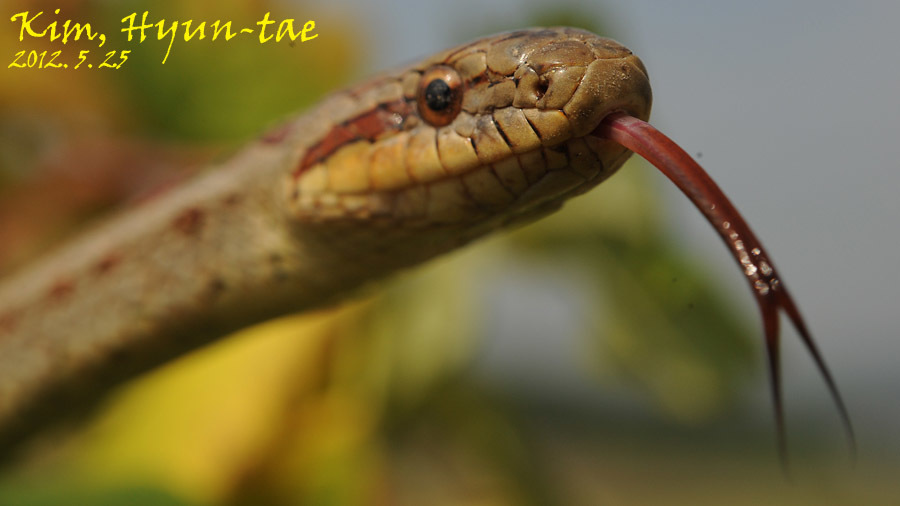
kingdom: Animalia
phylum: Chordata
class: Squamata
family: Colubridae
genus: Elaphe
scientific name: Elaphe dione
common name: Dione ratsnake
